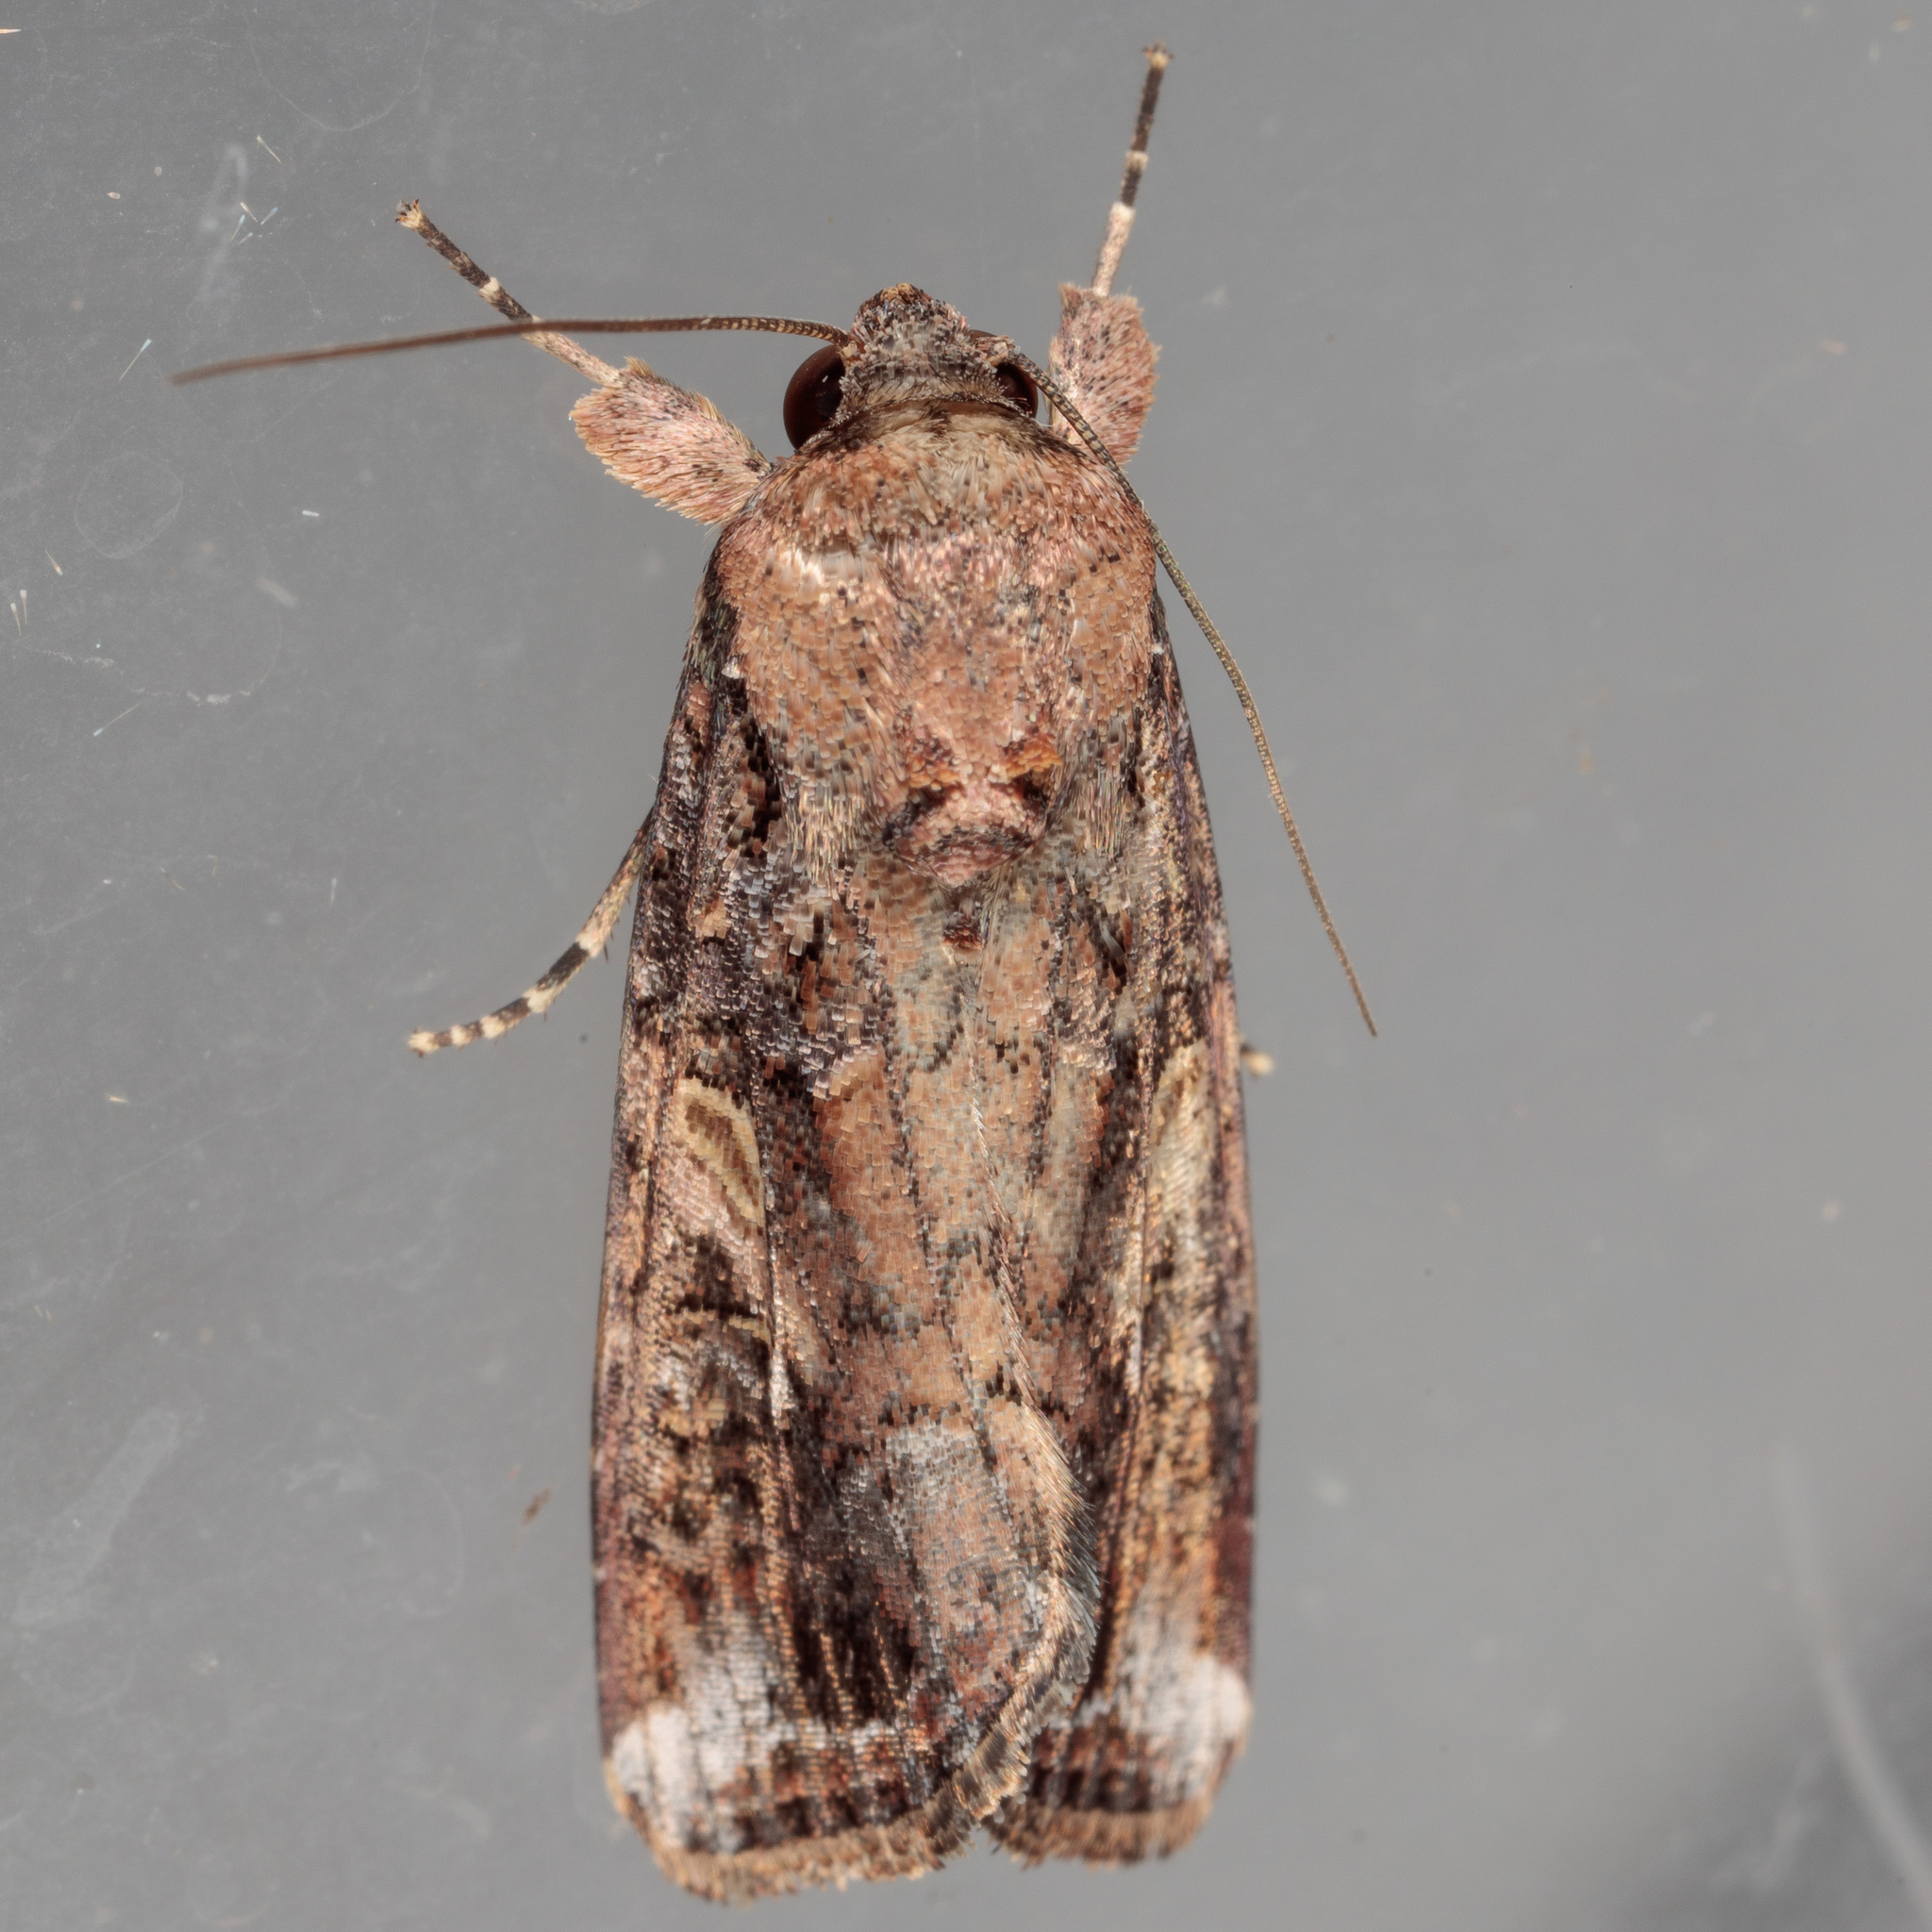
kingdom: Animalia
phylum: Arthropoda
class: Insecta
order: Lepidoptera
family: Noctuidae
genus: Spodoptera
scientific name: Spodoptera frugiperda
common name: Fall armyworm
